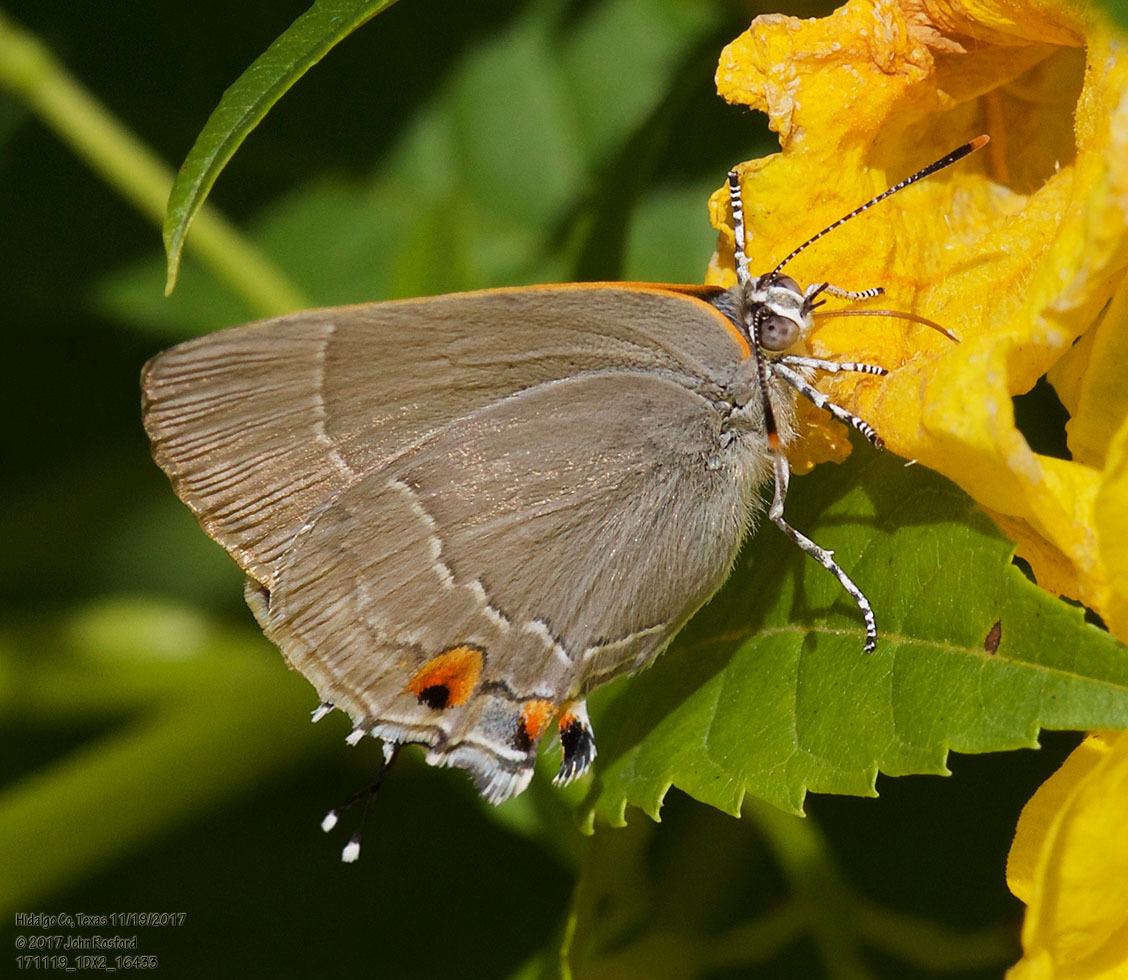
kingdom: Animalia
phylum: Arthropoda
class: Insecta
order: Lepidoptera
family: Lycaenidae
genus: Thecla
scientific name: Thecla marius
